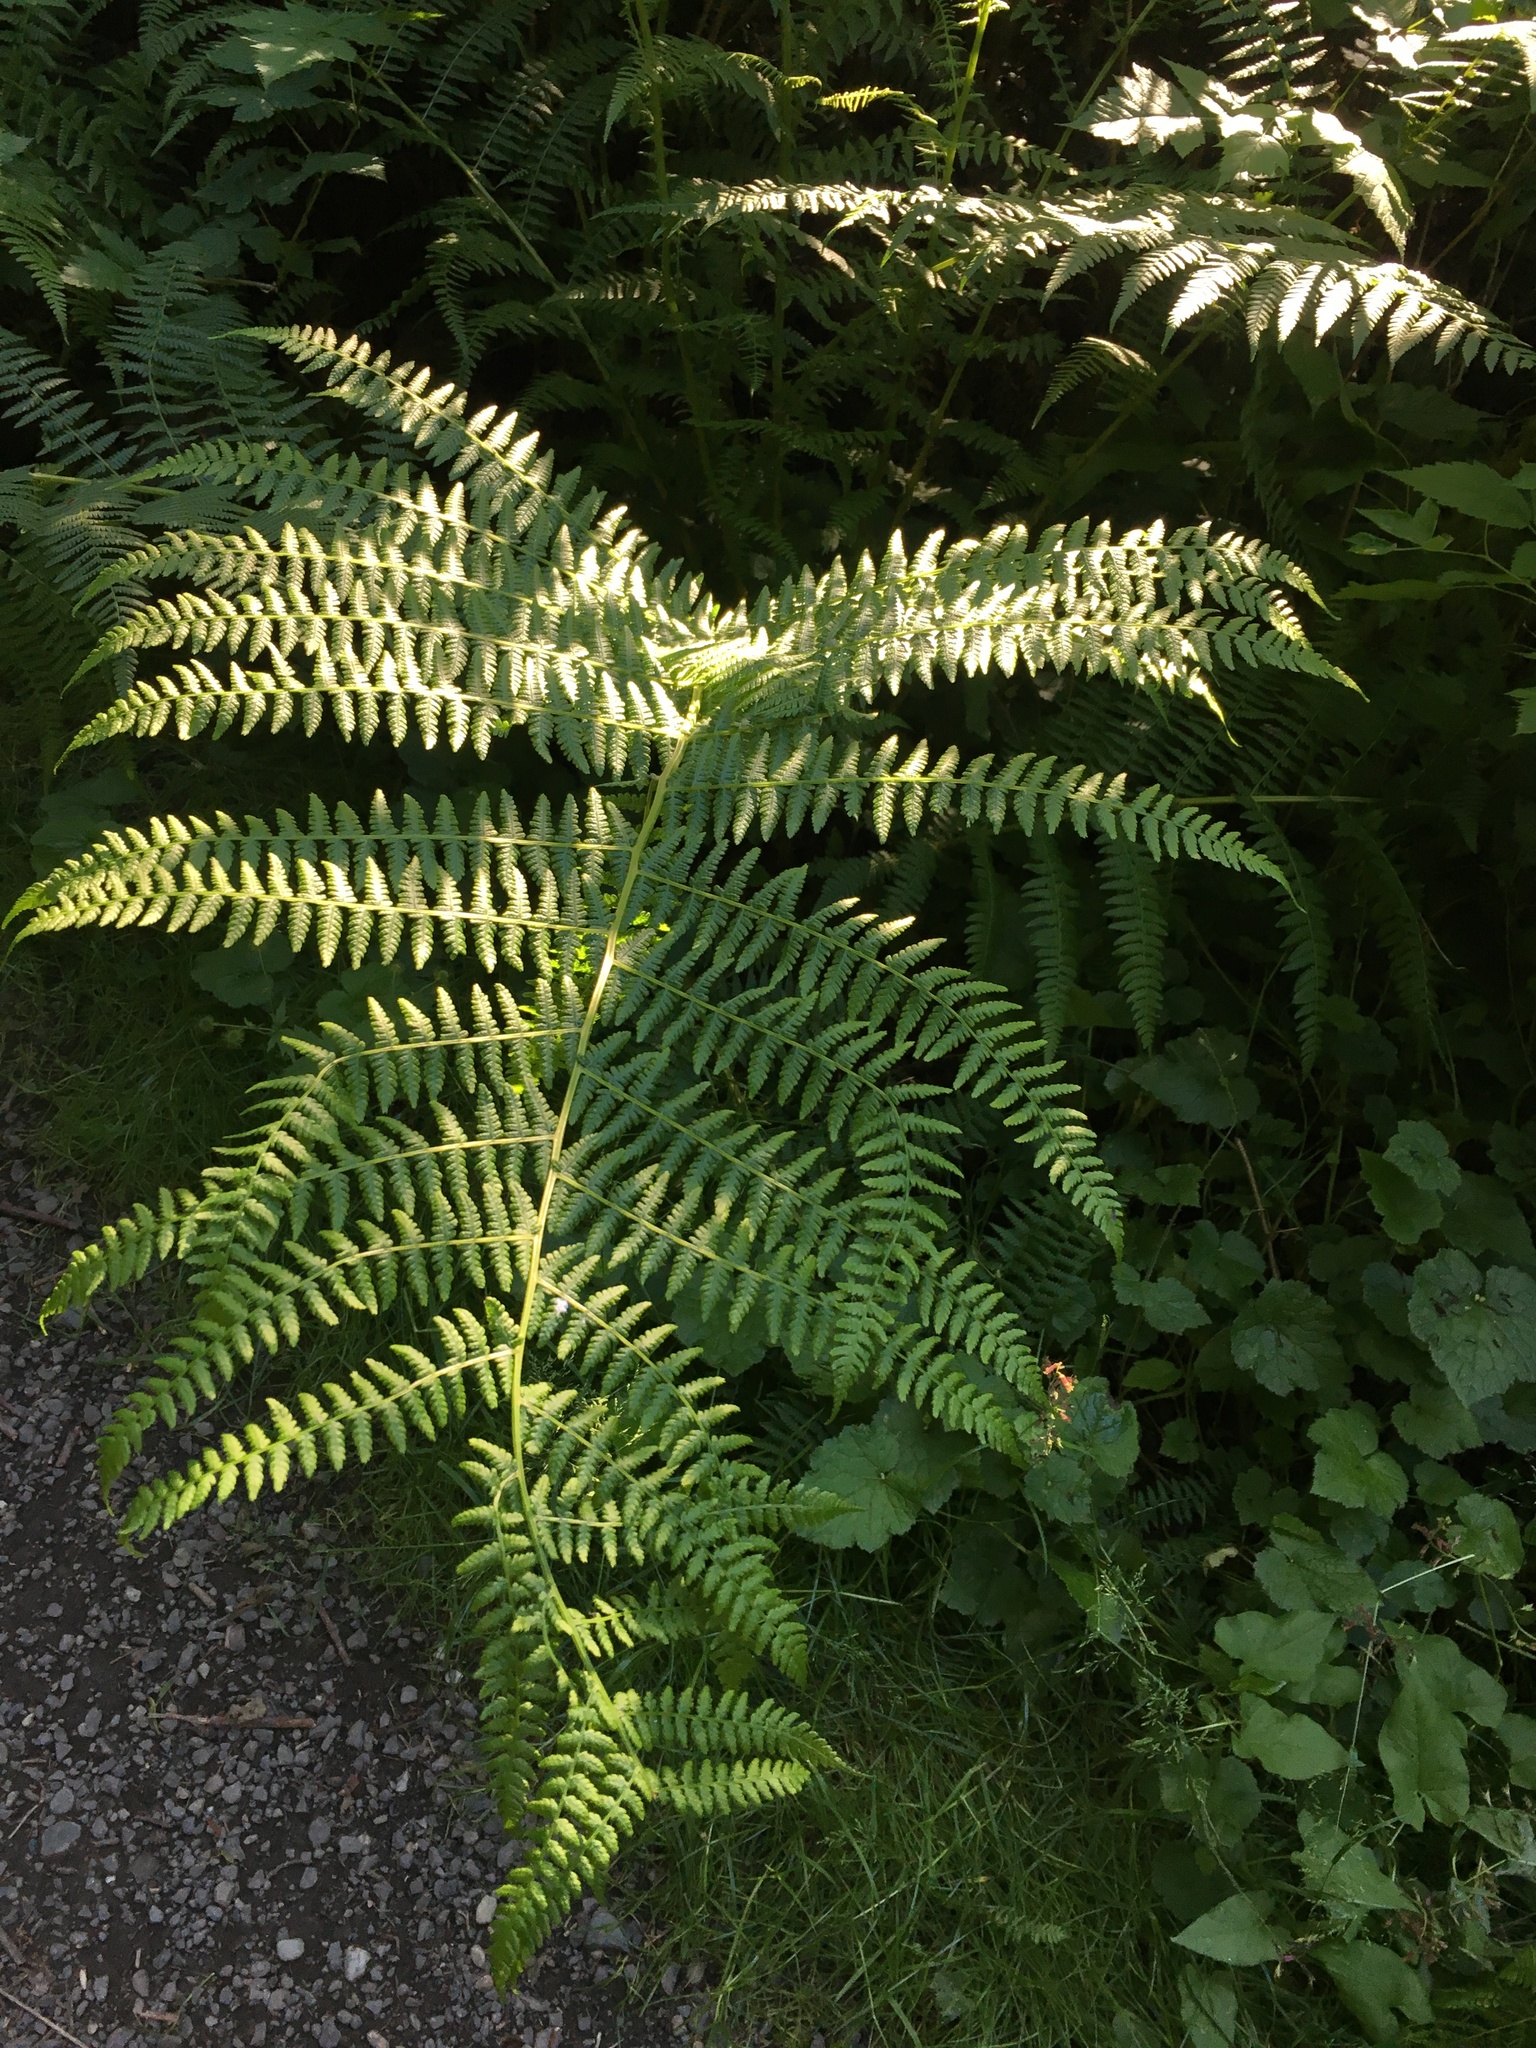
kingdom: Plantae
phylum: Tracheophyta
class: Polypodiopsida
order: Polypodiales
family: Athyriaceae
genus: Athyrium
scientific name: Athyrium filix-femina
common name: Lady fern
